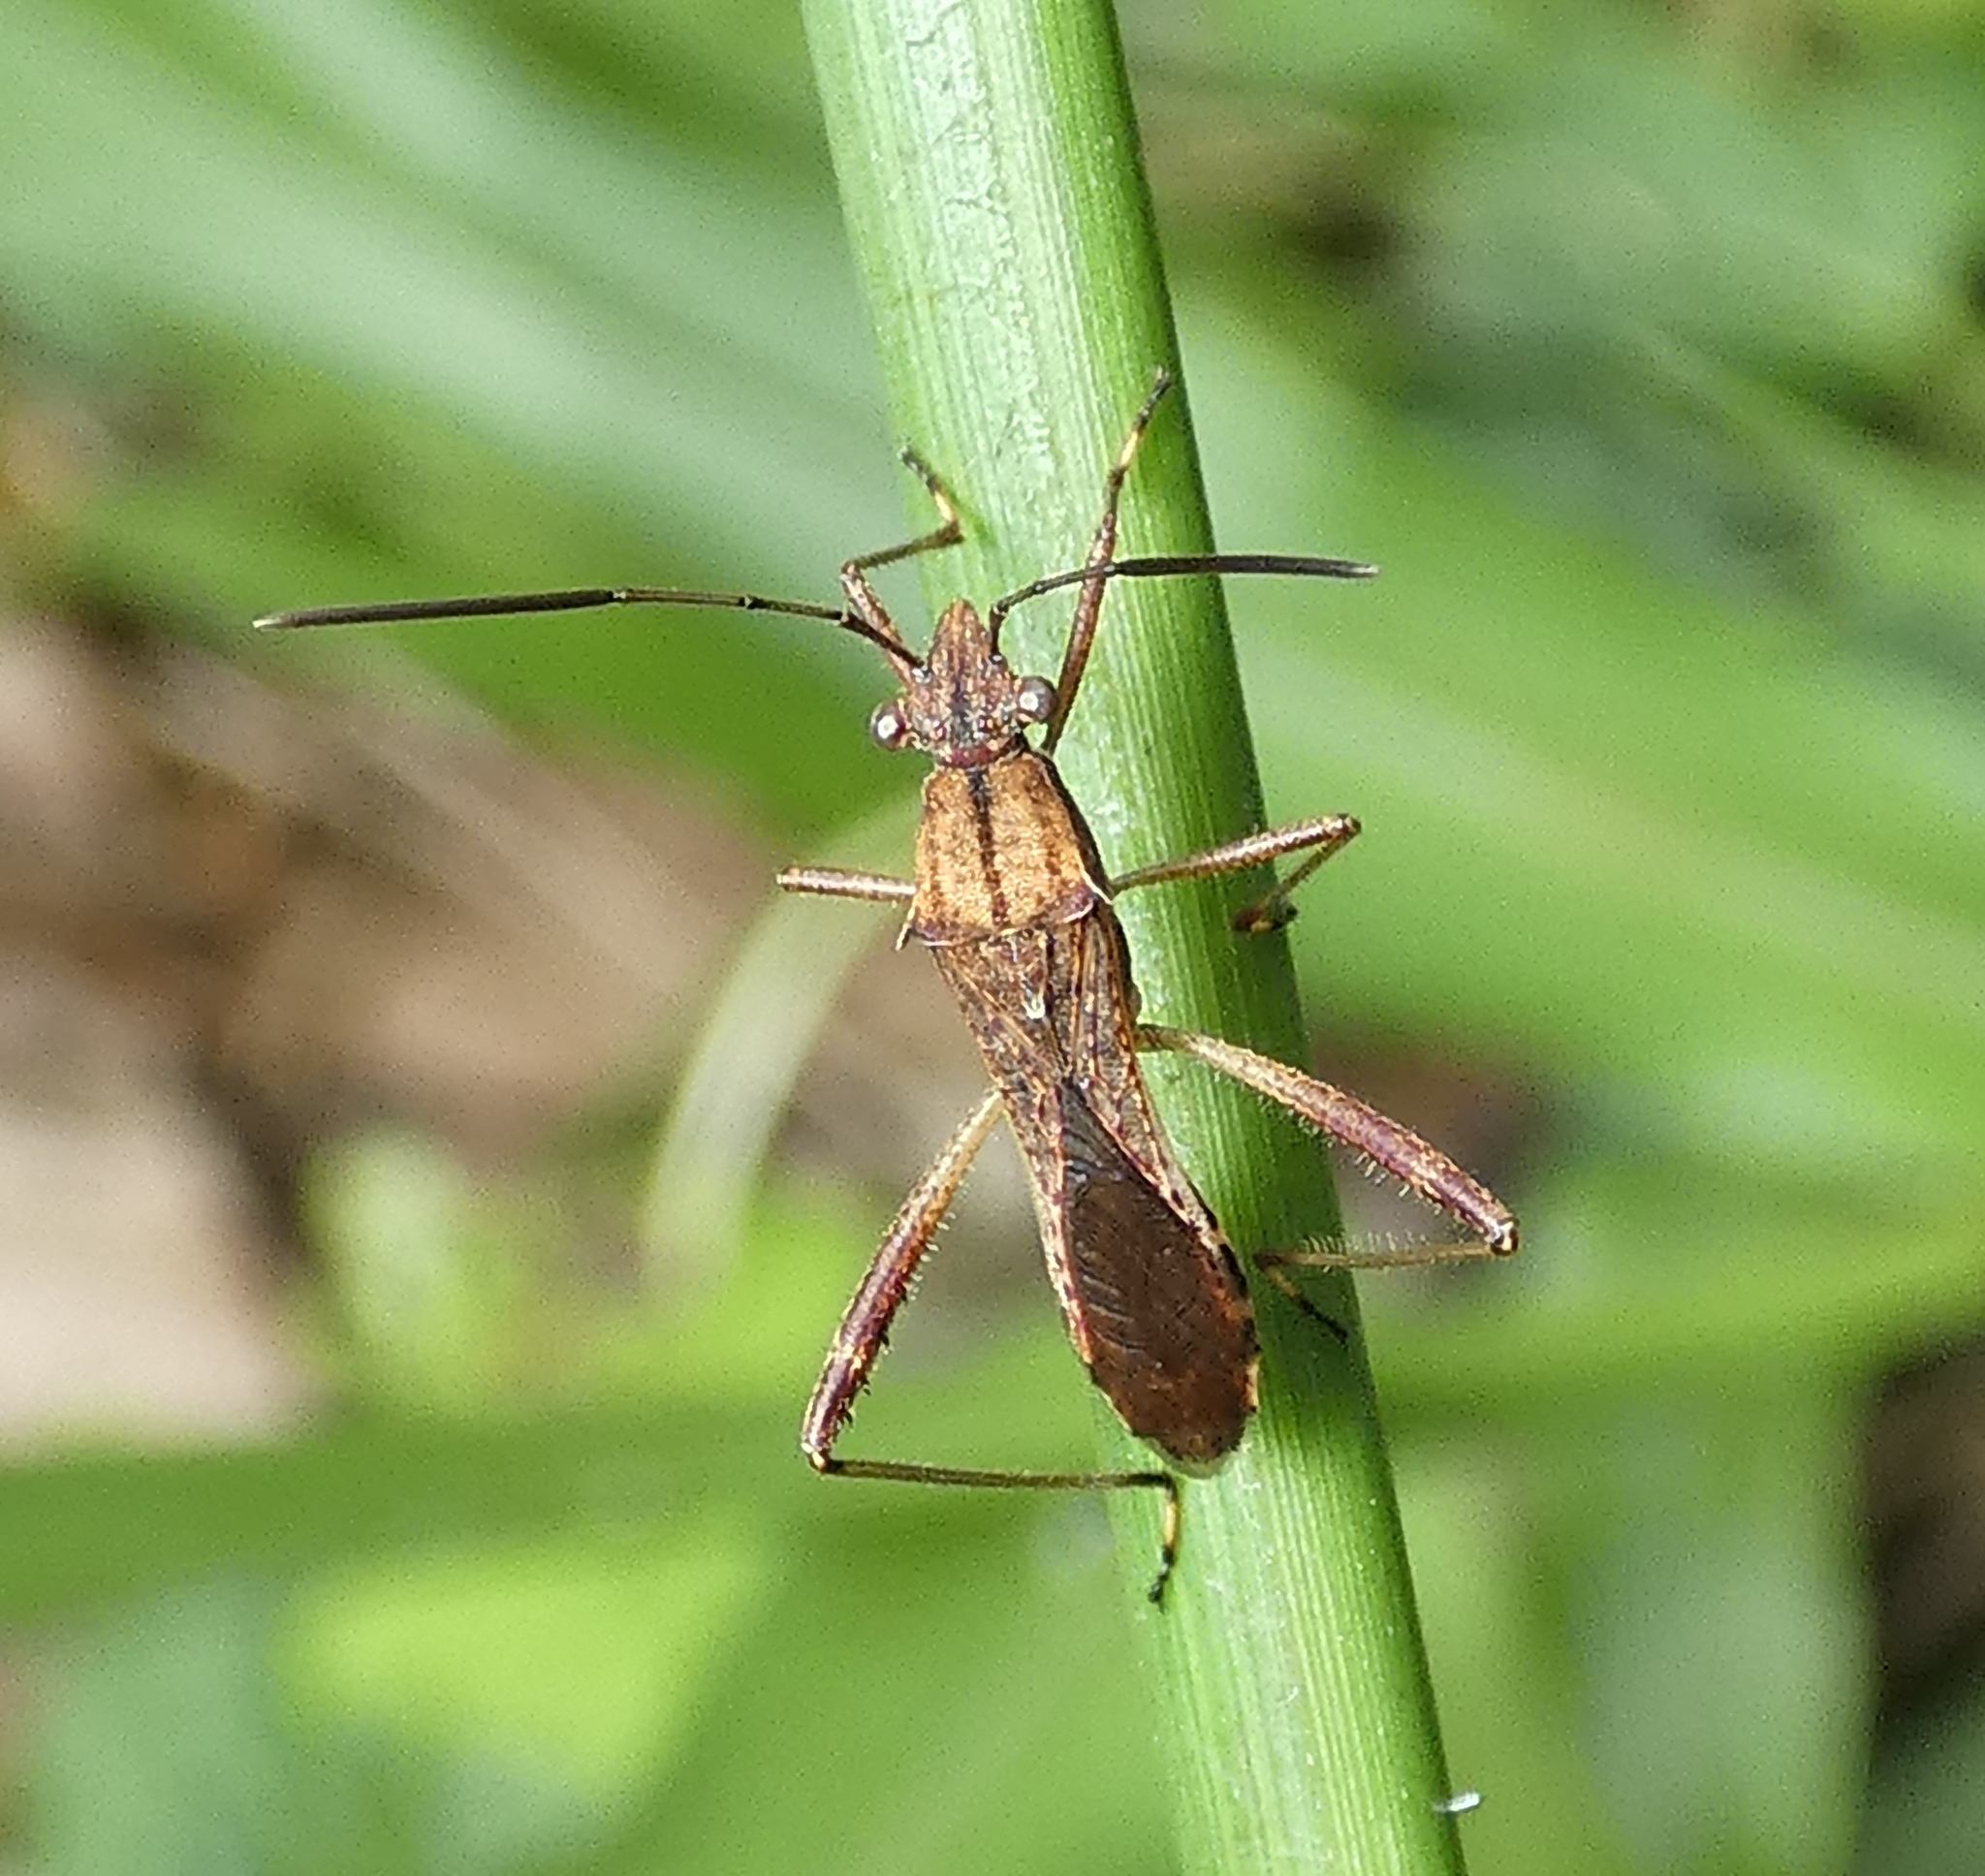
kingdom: Animalia
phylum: Arthropoda
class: Insecta
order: Hemiptera
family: Alydidae
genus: Neomegalotomus
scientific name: Neomegalotomus parvus
